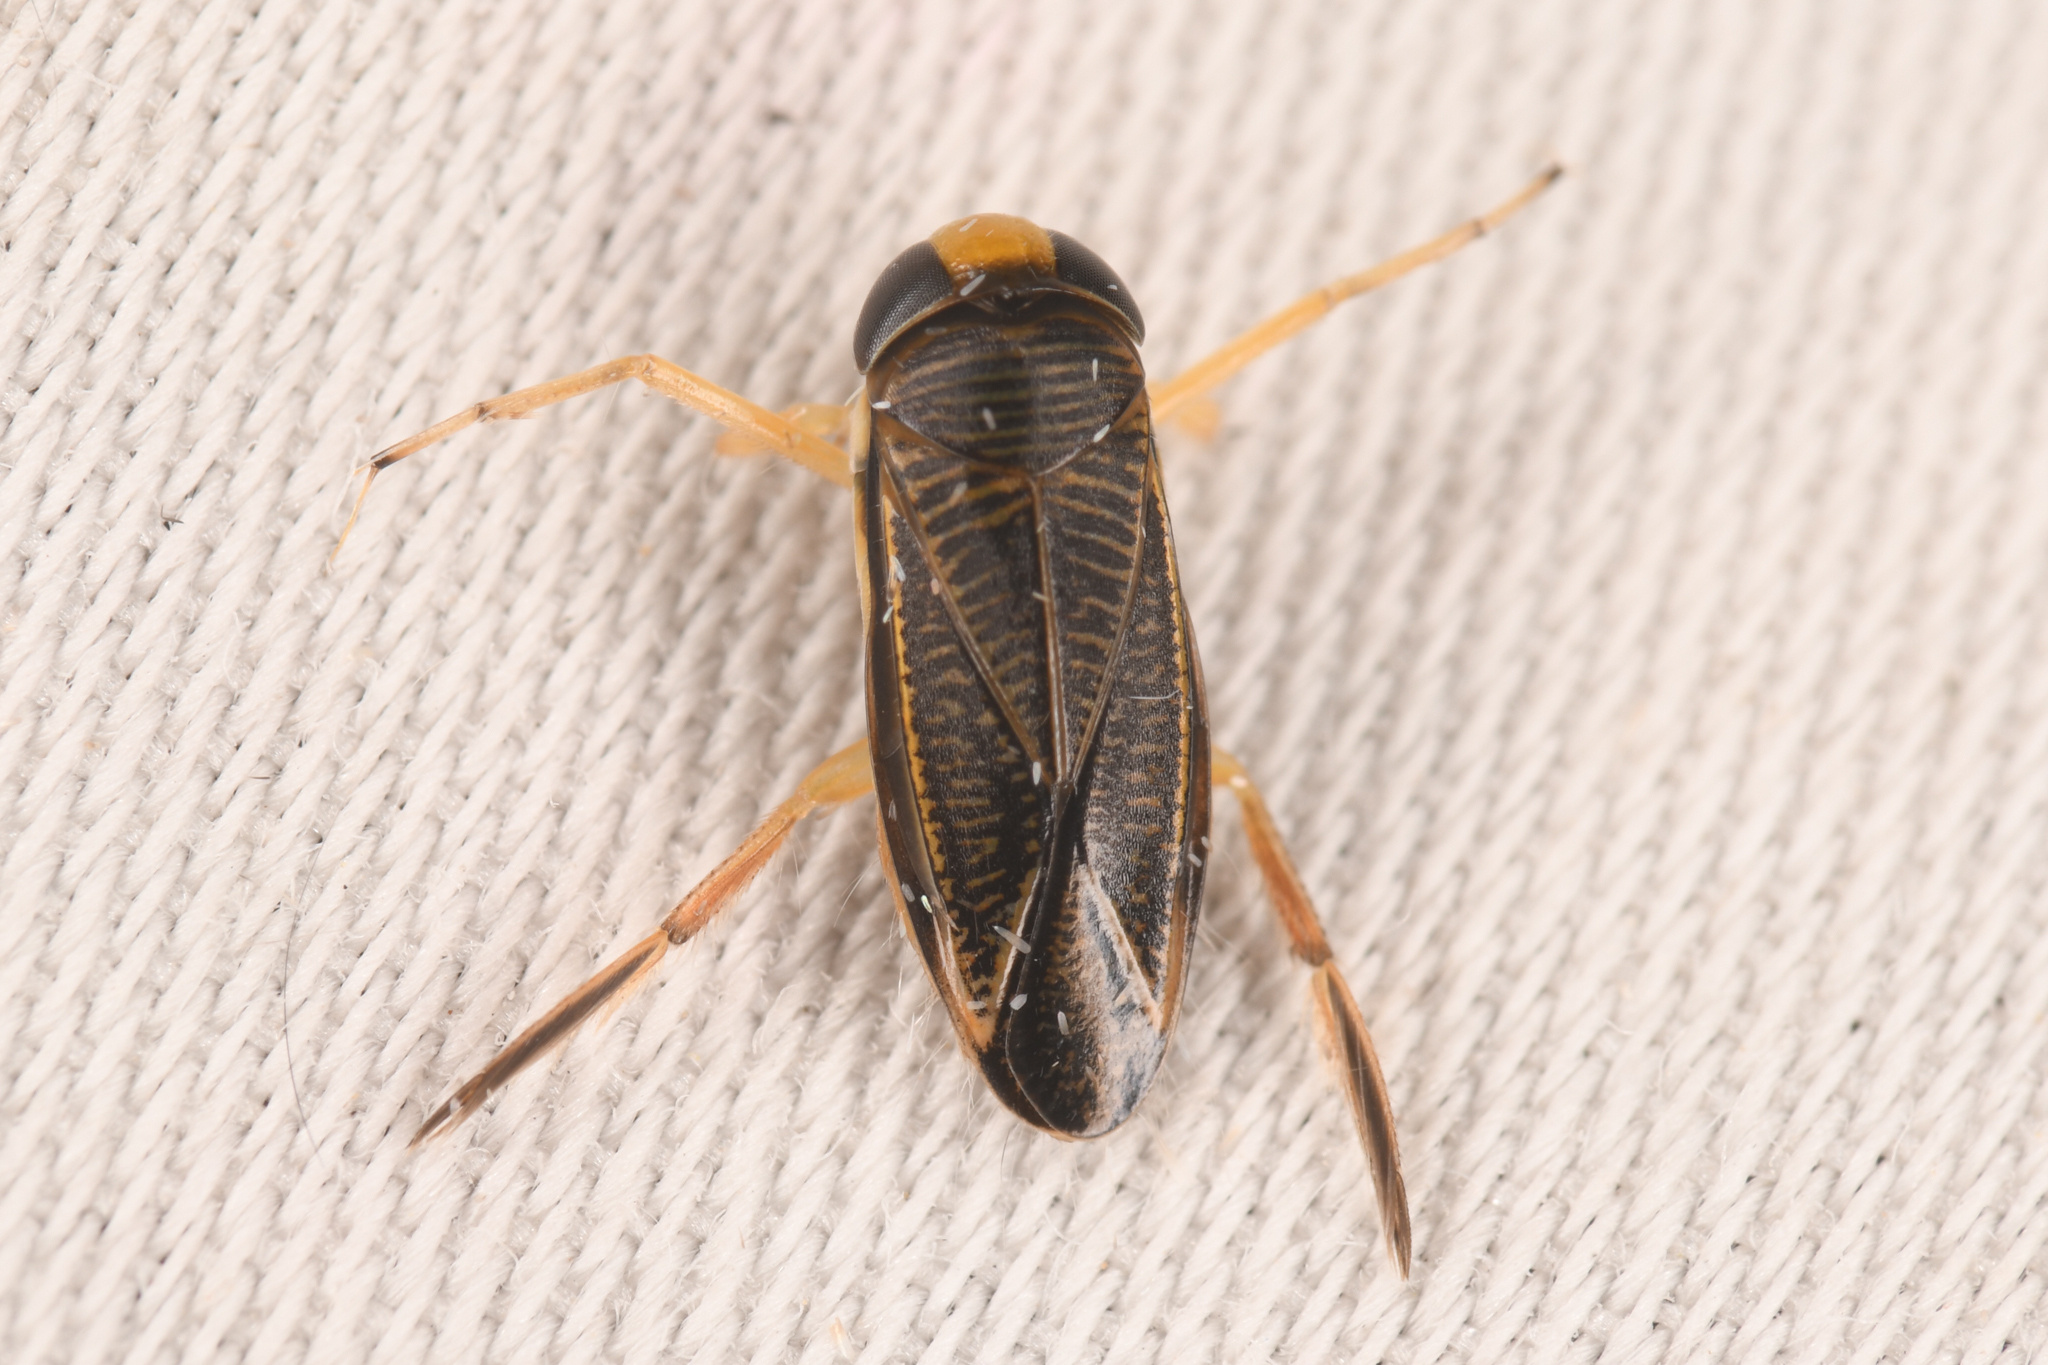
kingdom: Animalia
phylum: Arthropoda
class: Insecta
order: Hemiptera
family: Corixidae
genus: Sigara
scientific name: Sigara
